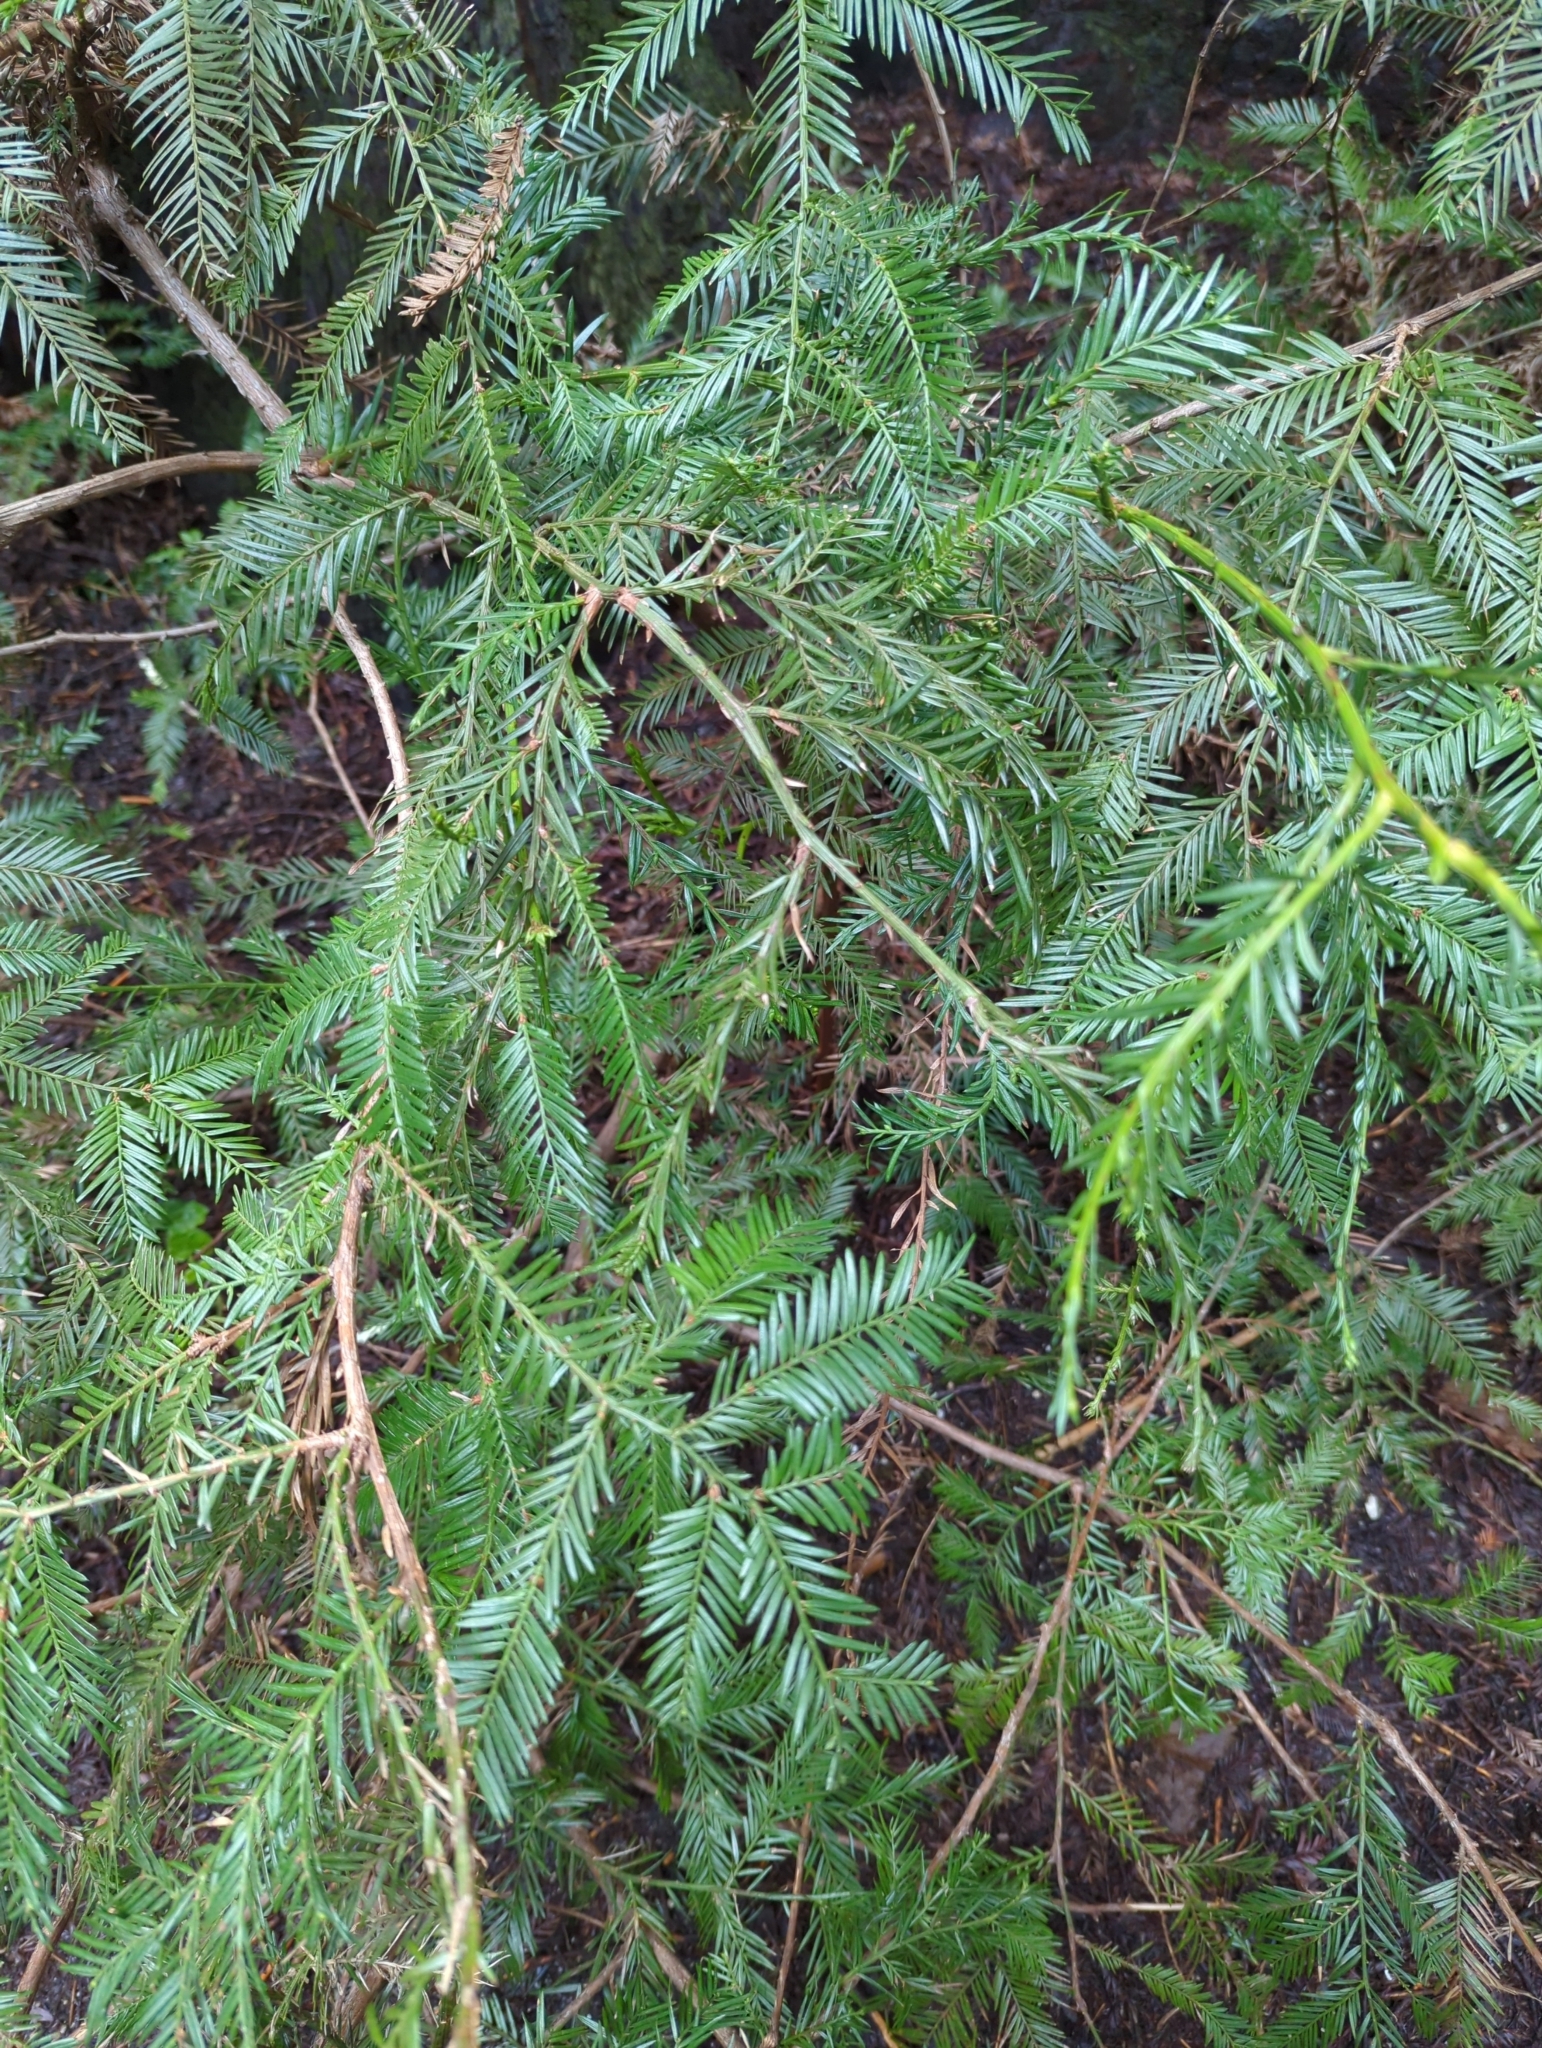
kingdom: Plantae
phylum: Tracheophyta
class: Pinopsida
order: Pinales
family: Cupressaceae
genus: Sequoia
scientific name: Sequoia sempervirens
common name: Coast redwood
